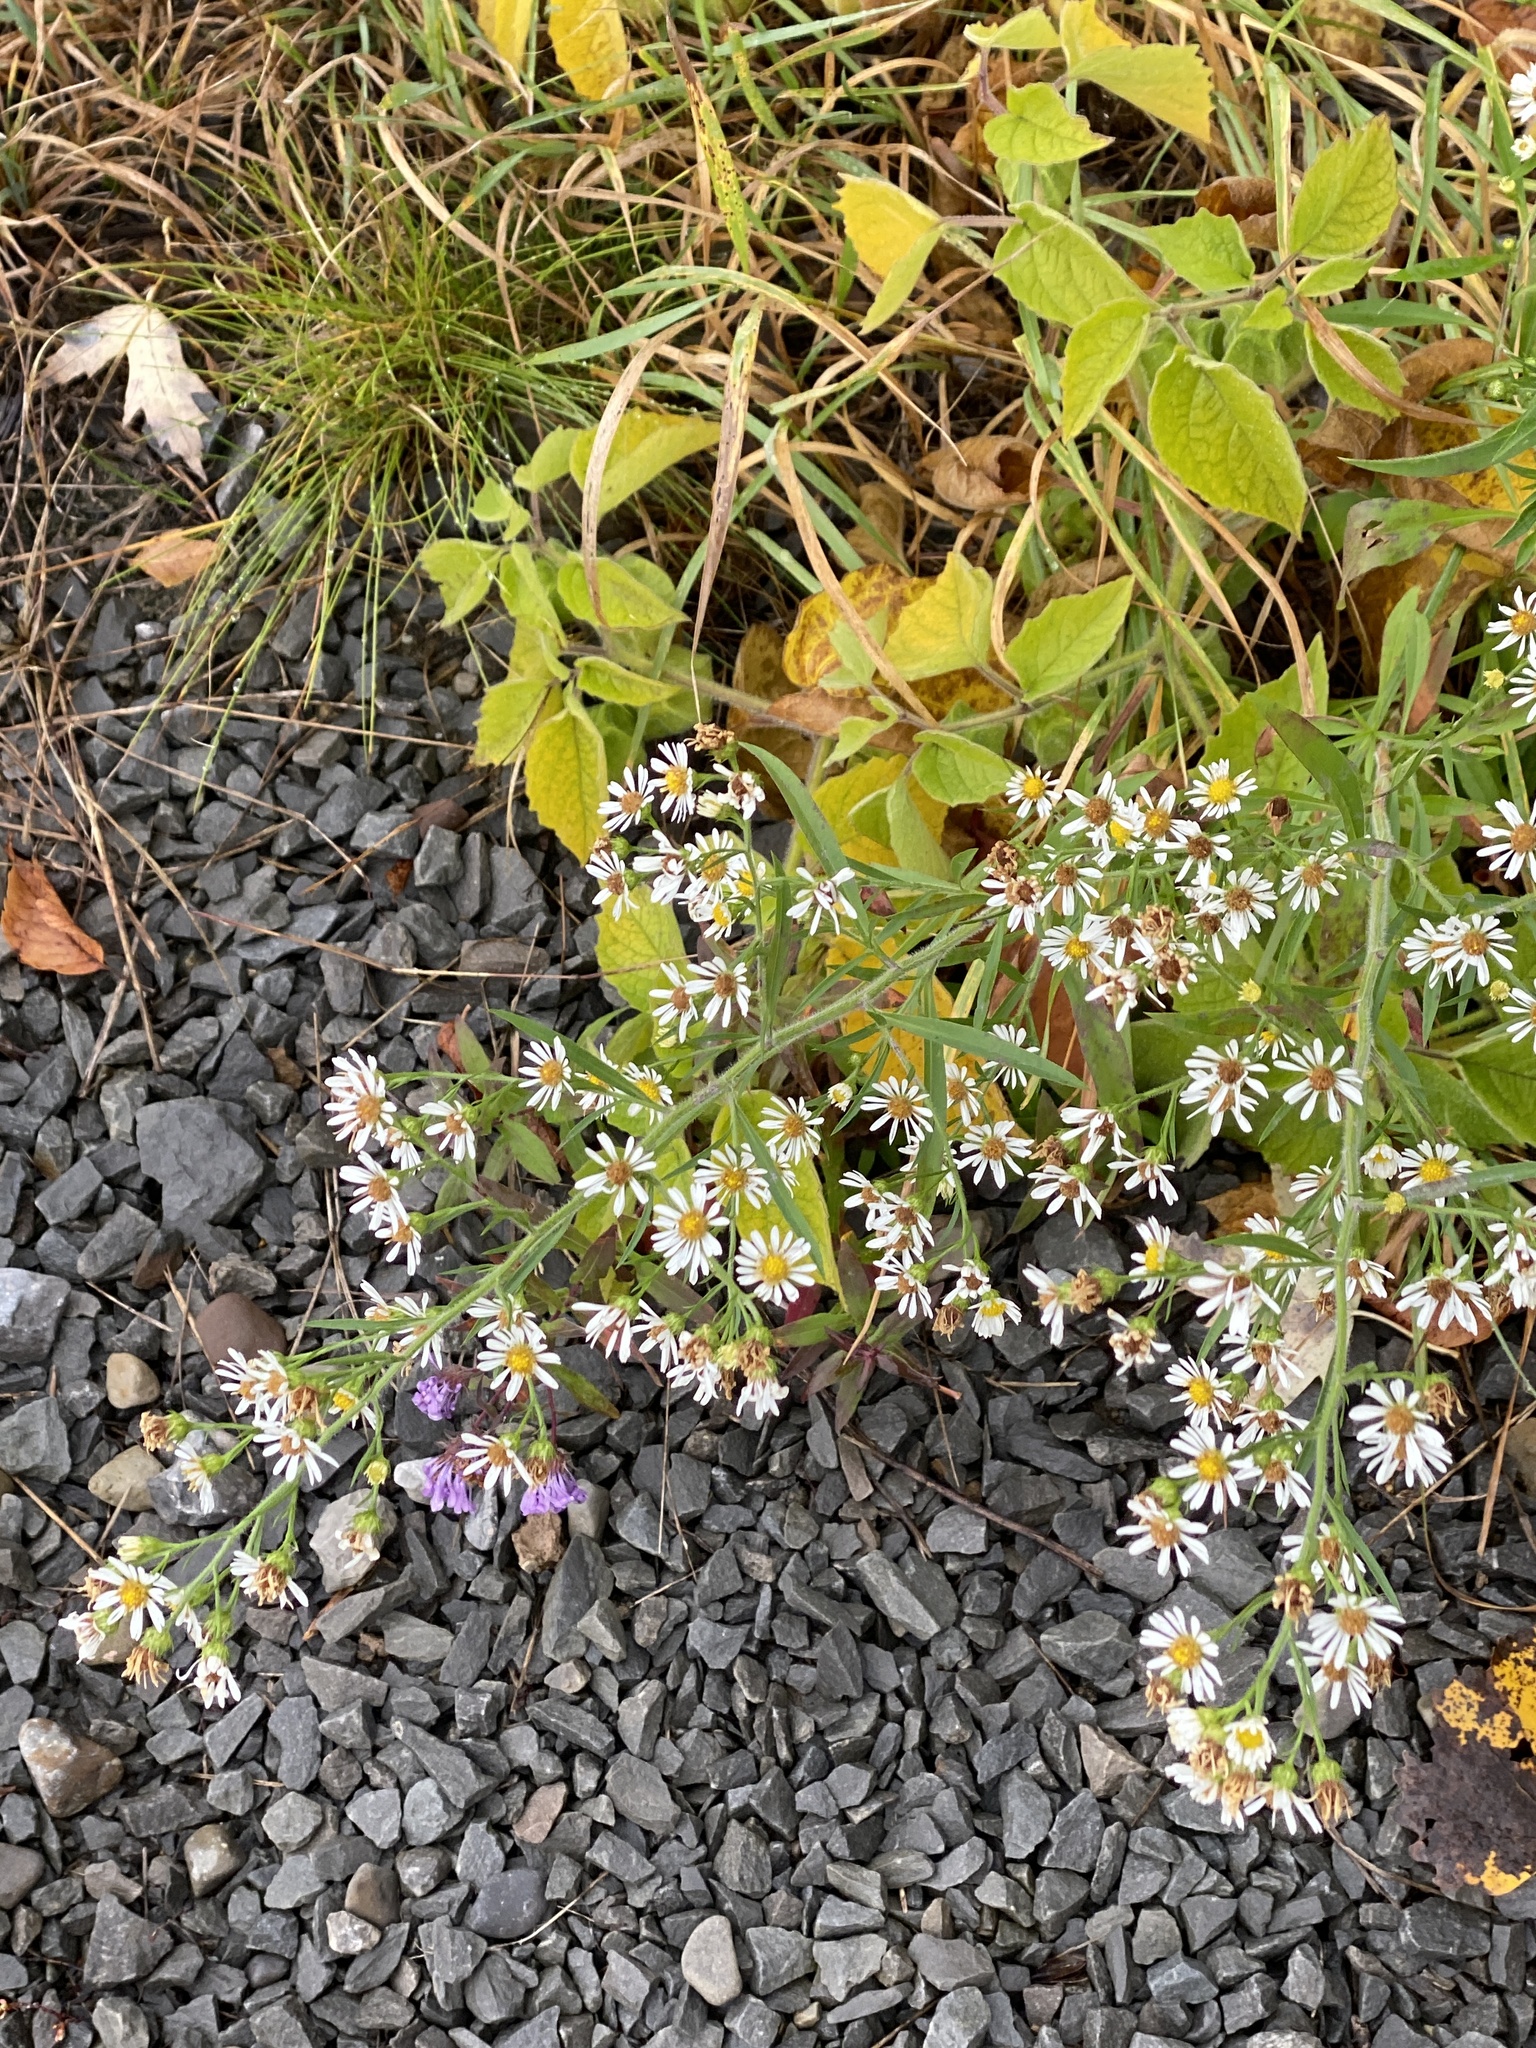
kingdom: Plantae
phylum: Tracheophyta
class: Magnoliopsida
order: Asterales
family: Asteraceae
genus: Symphyotrichum
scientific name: Symphyotrichum pilosum
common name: Awl aster
